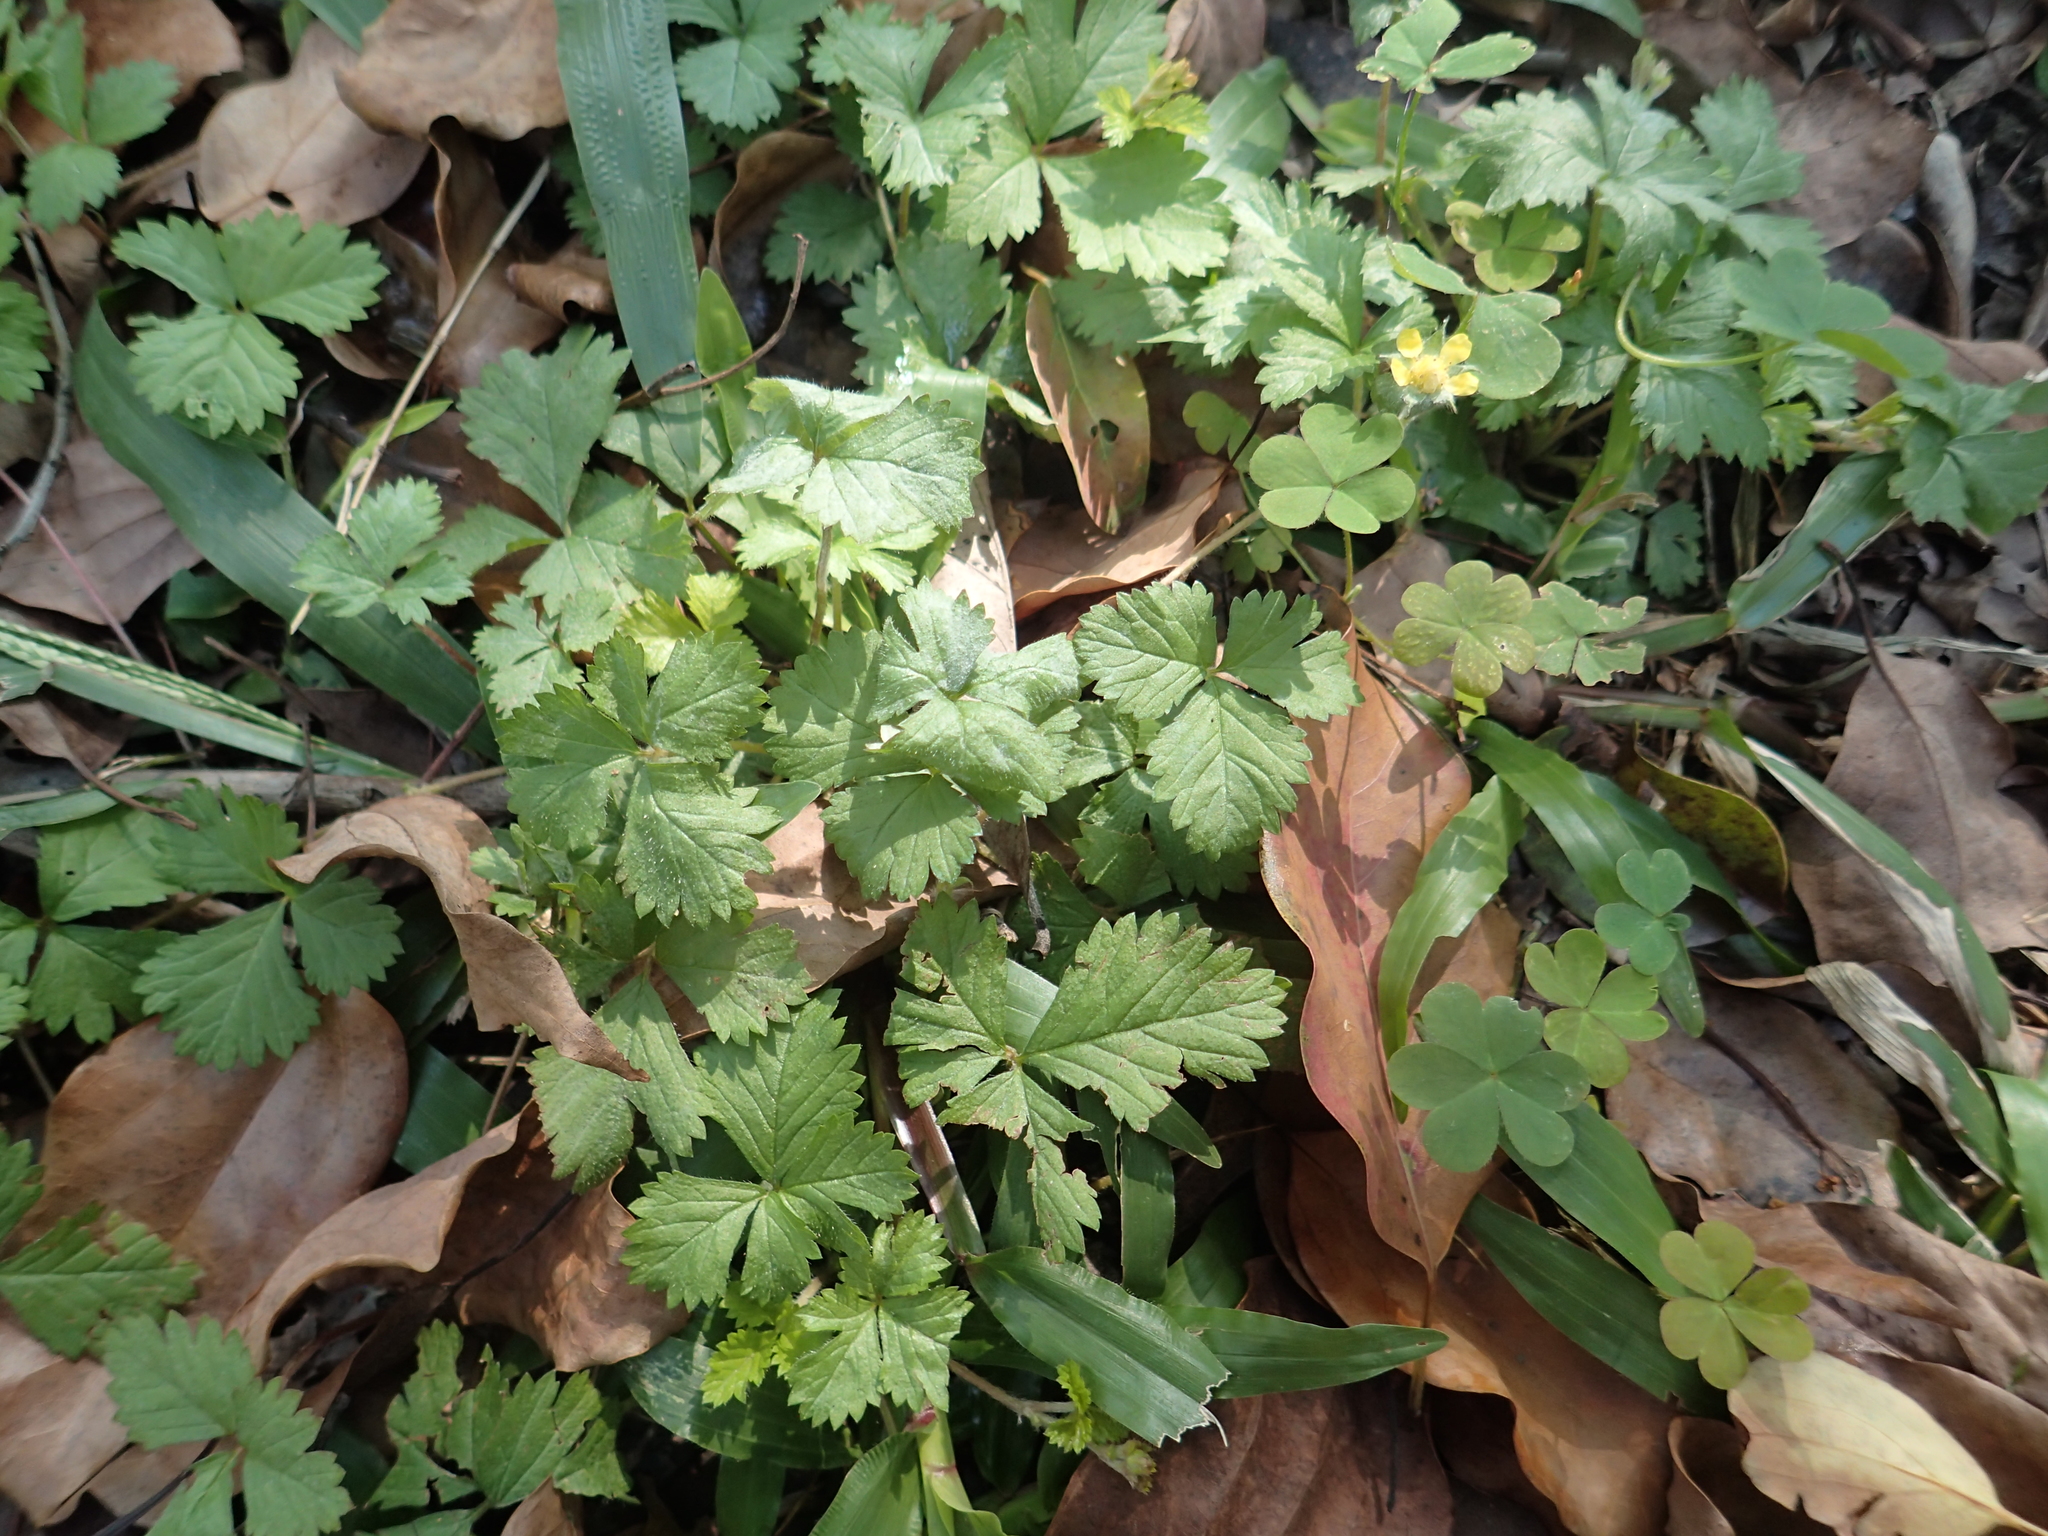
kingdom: Plantae
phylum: Tracheophyta
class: Magnoliopsida
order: Rosales
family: Rosaceae
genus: Potentilla
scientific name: Potentilla wallichiana
